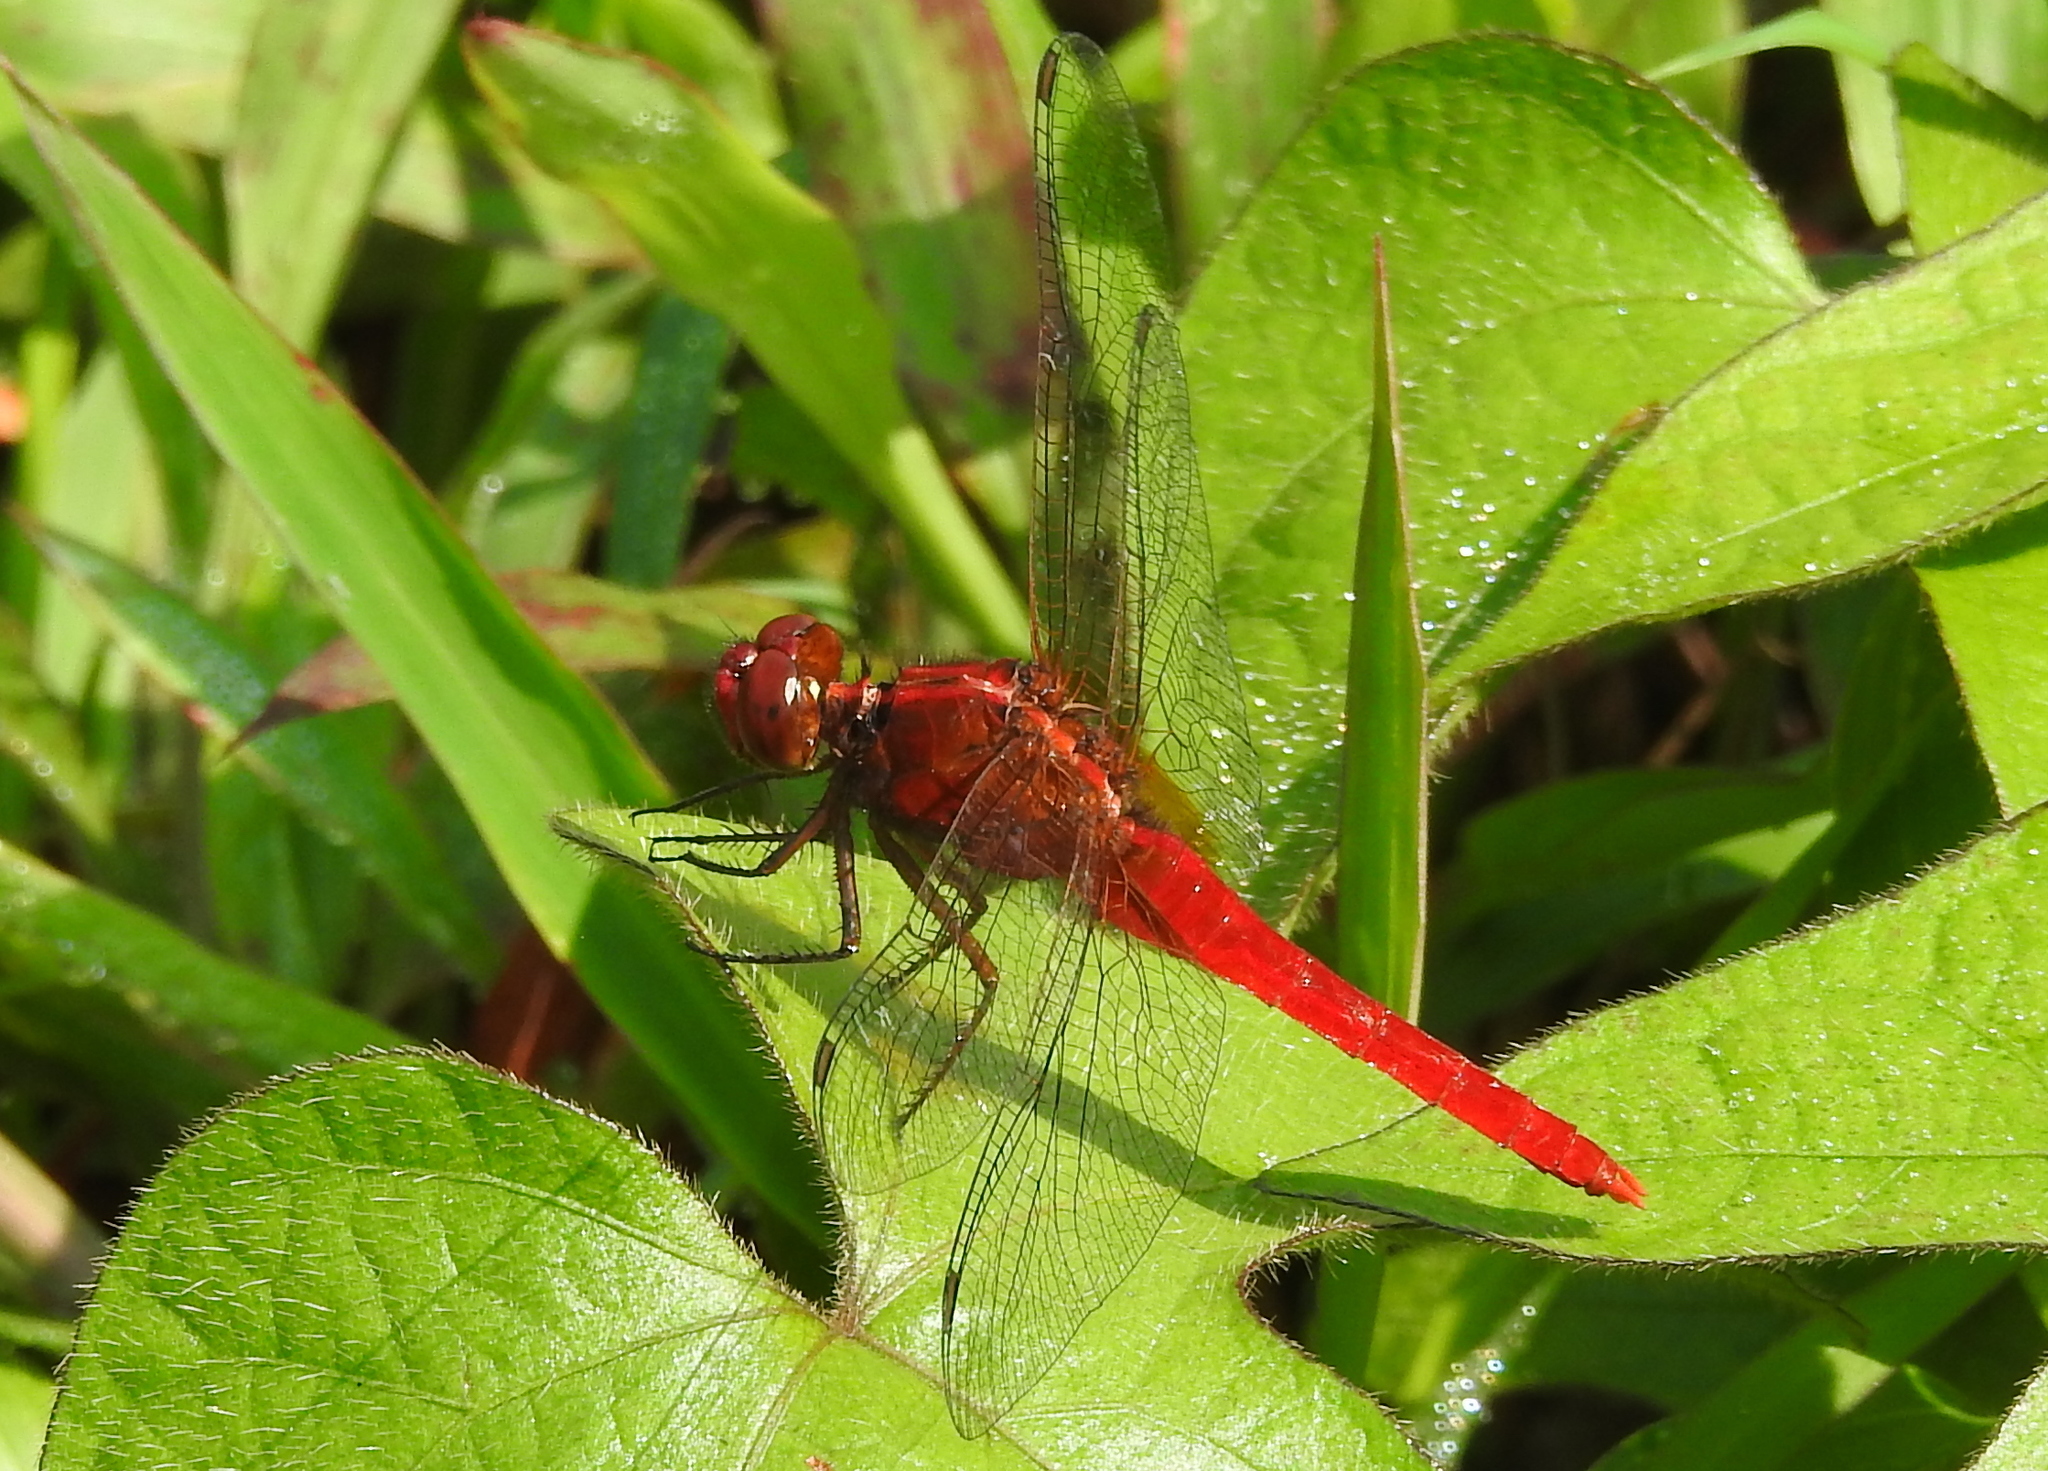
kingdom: Animalia
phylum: Arthropoda
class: Insecta
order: Odonata
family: Libellulidae
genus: Rhodothemis
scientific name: Rhodothemis rufa
